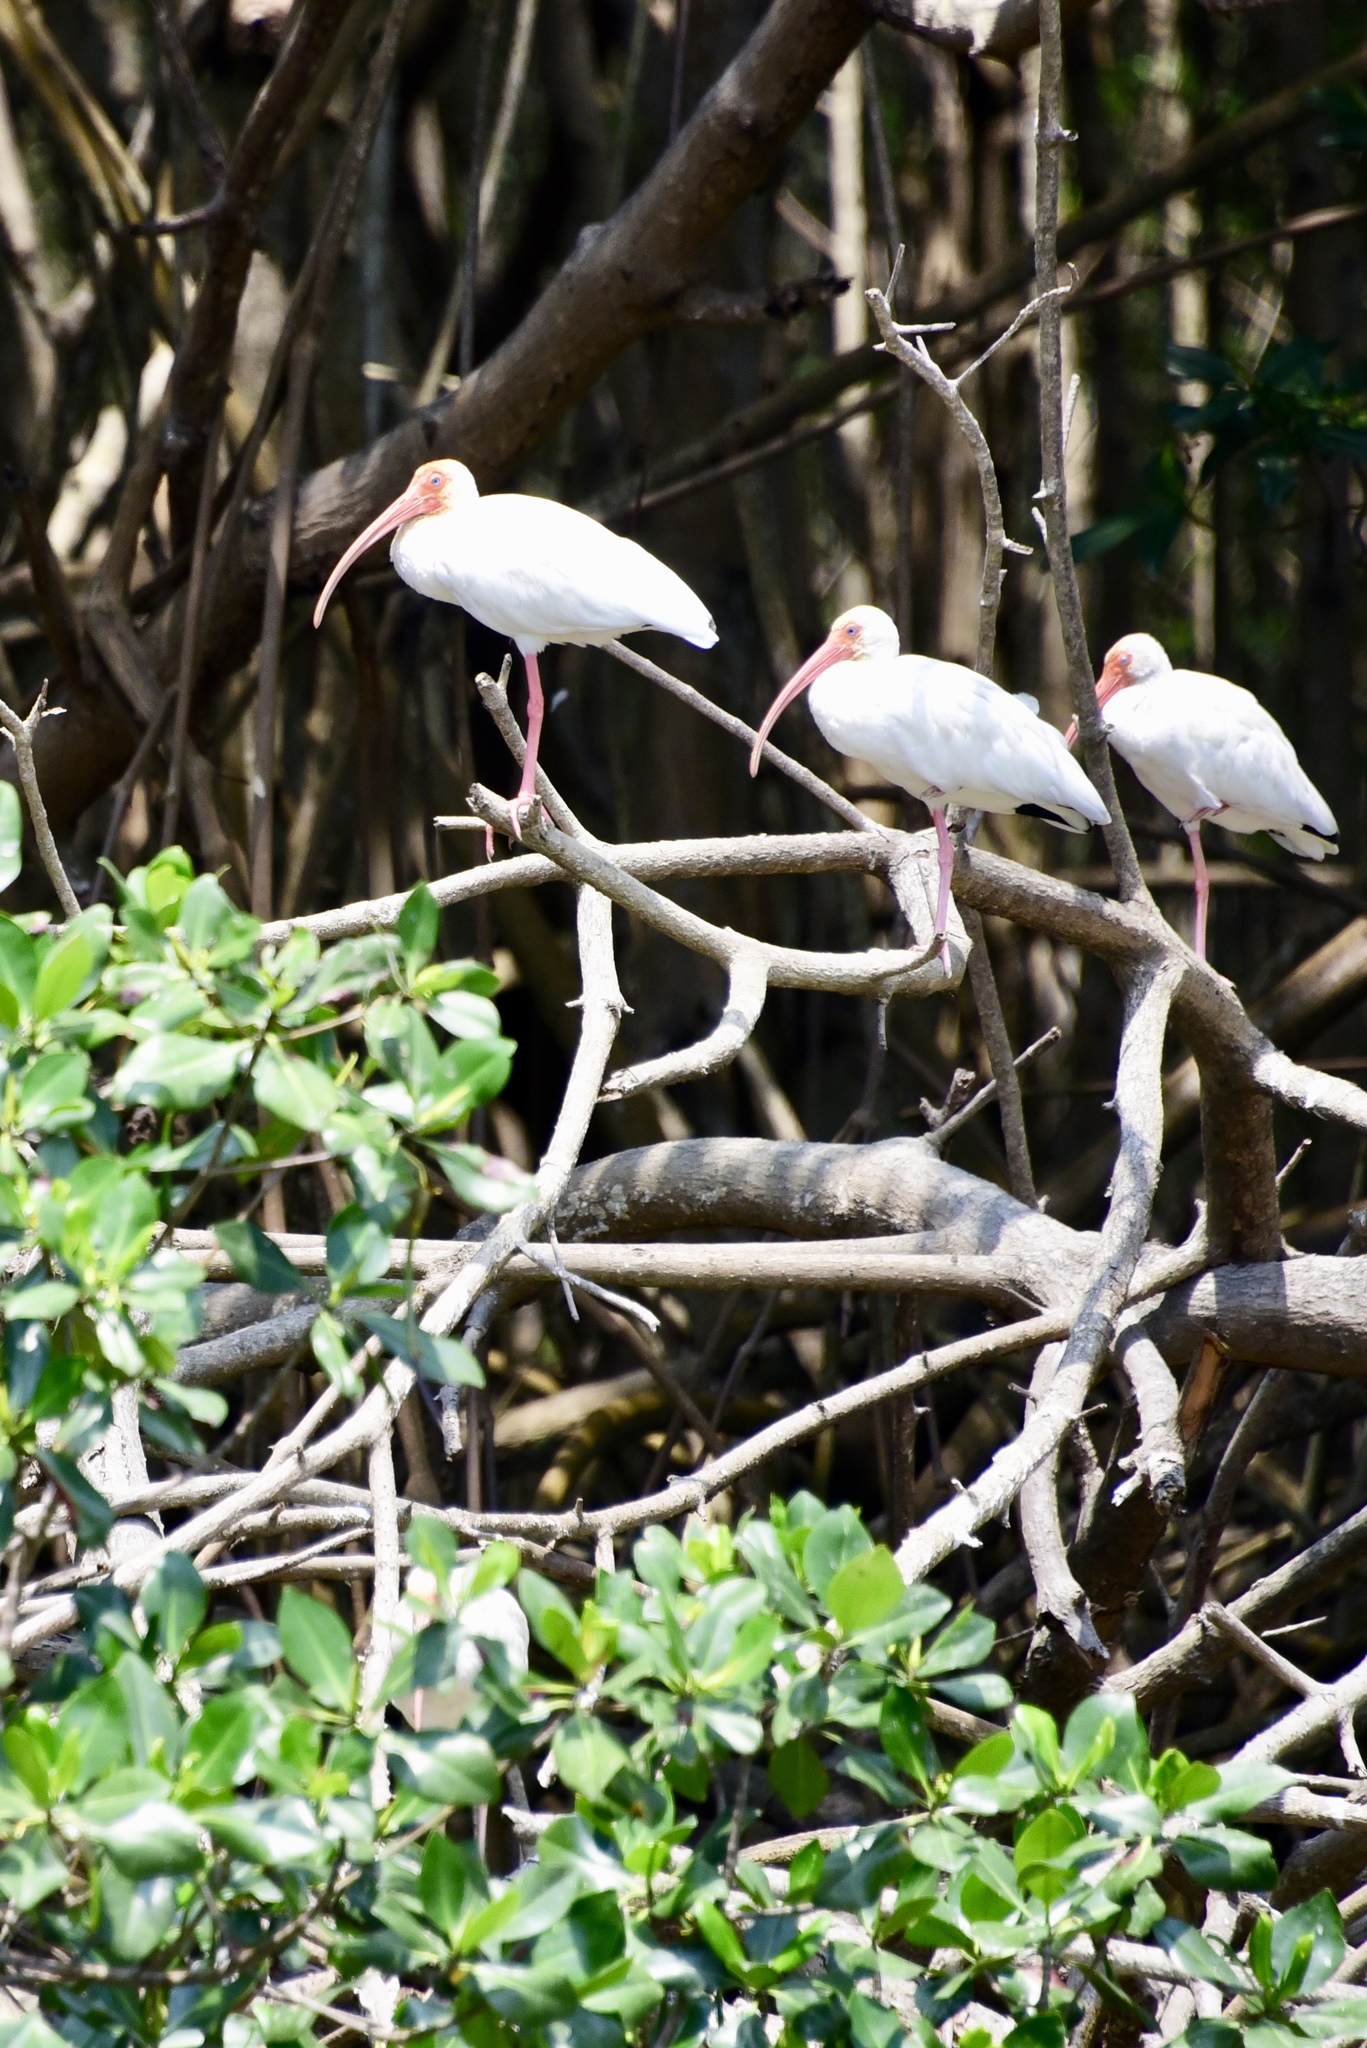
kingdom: Animalia
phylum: Chordata
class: Aves
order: Pelecaniformes
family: Threskiornithidae
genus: Eudocimus
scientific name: Eudocimus albus
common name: White ibis
